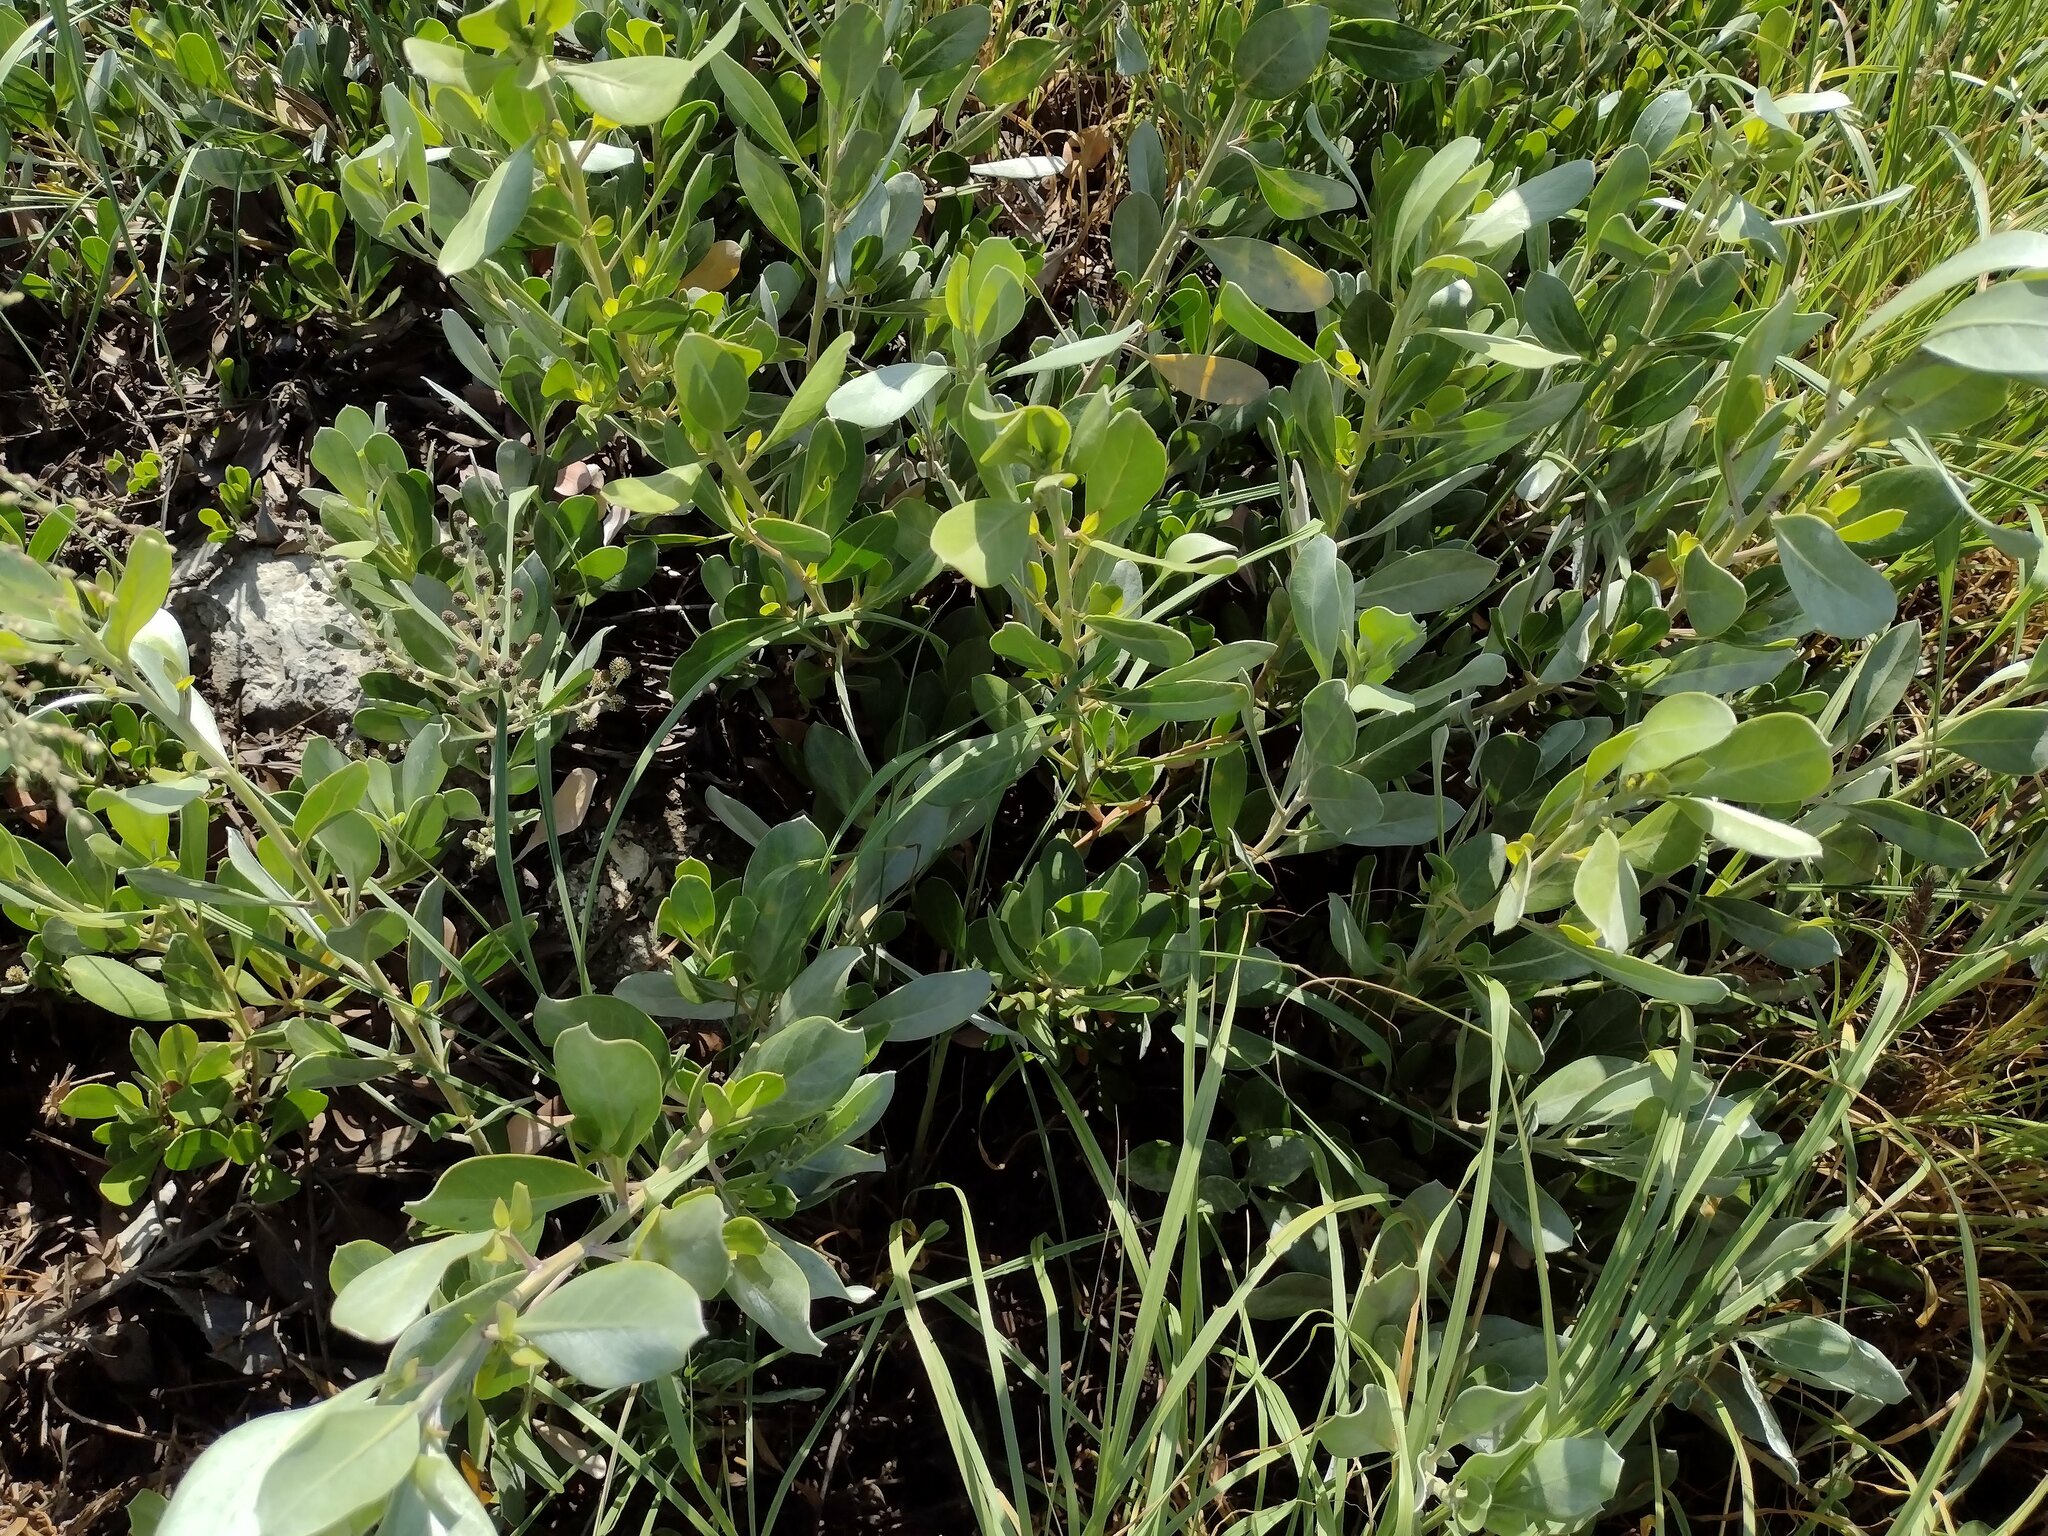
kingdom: Plantae
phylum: Tracheophyta
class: Magnoliopsida
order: Myrtales
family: Combretaceae
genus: Conocarpus
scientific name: Conocarpus erectus
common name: Button mangrove
